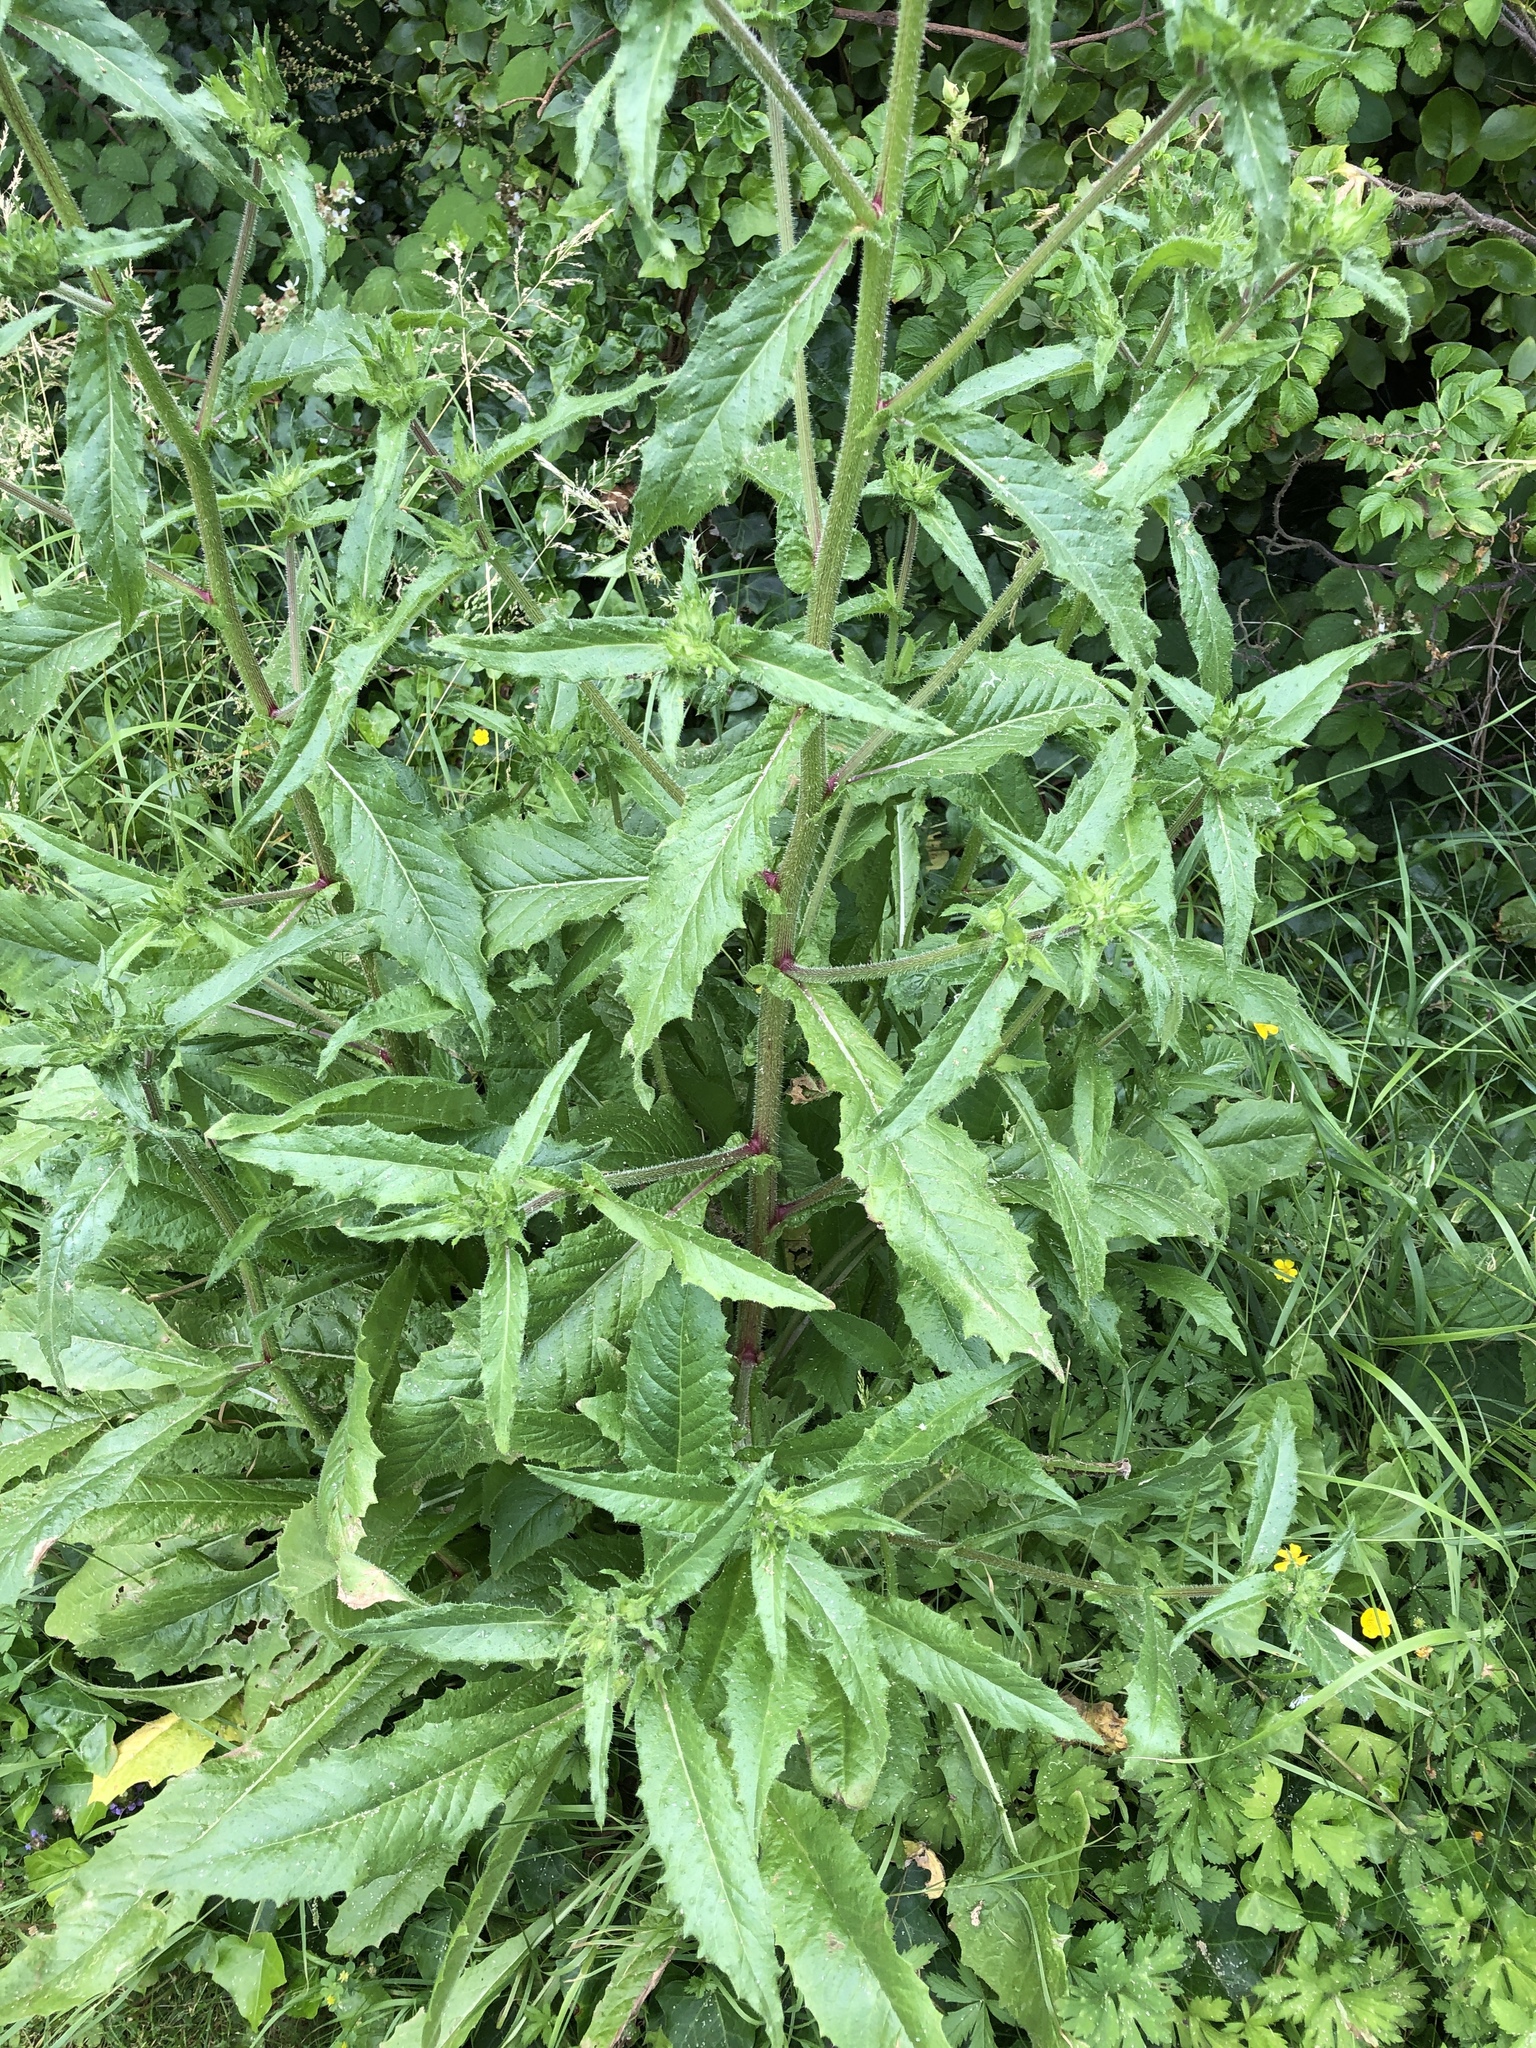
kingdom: Plantae
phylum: Tracheophyta
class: Magnoliopsida
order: Asterales
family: Asteraceae
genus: Helminthotheca
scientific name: Helminthotheca echioides
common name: Ox-tongue
